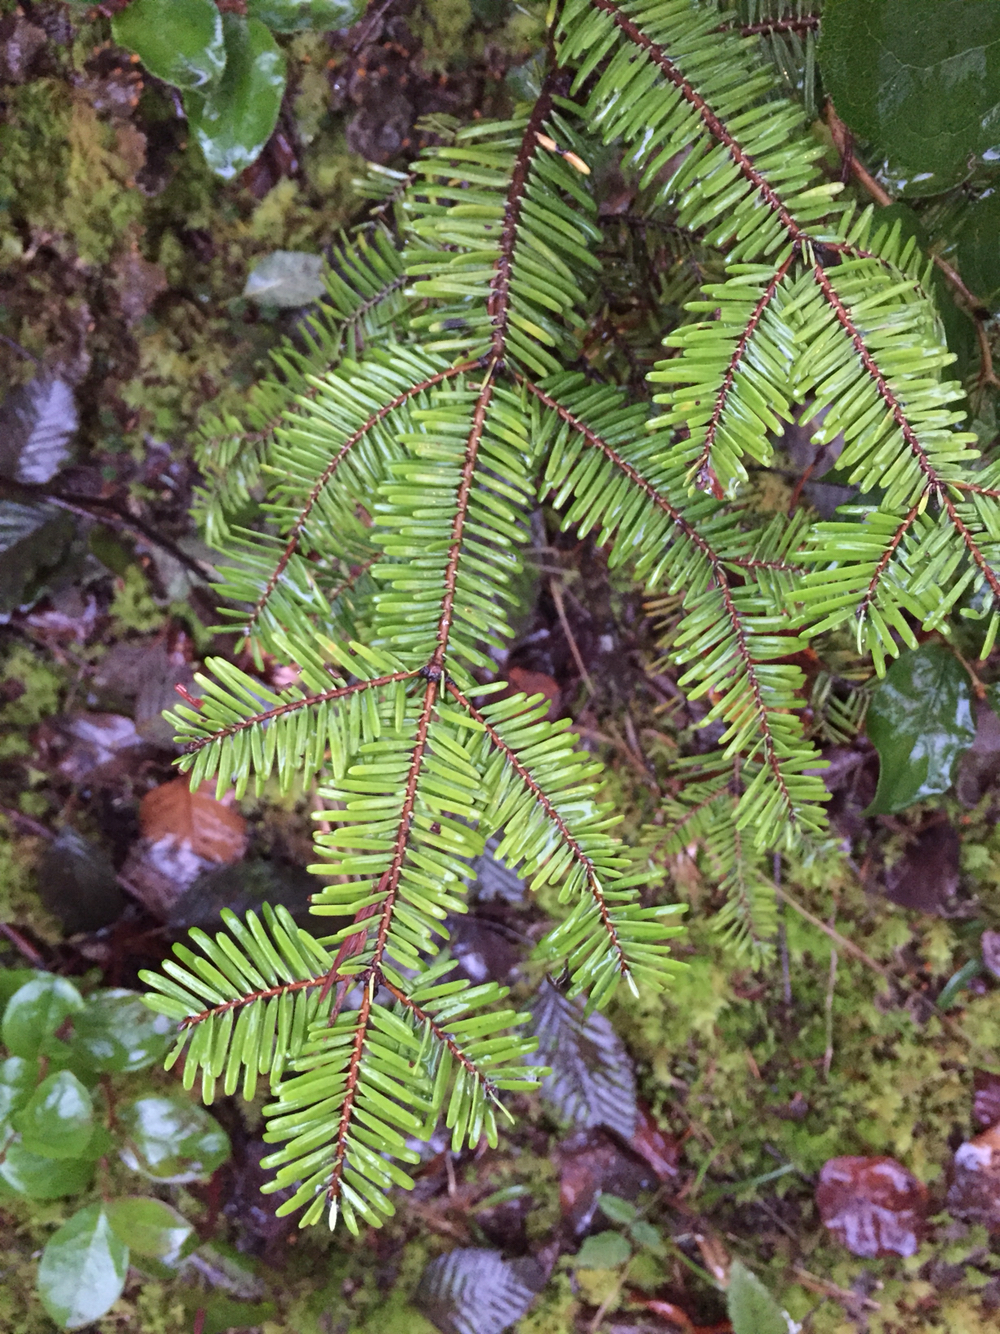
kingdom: Plantae
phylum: Tracheophyta
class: Pinopsida
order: Pinales
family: Pinaceae
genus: Abies
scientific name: Abies grandis
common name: Giant fir
